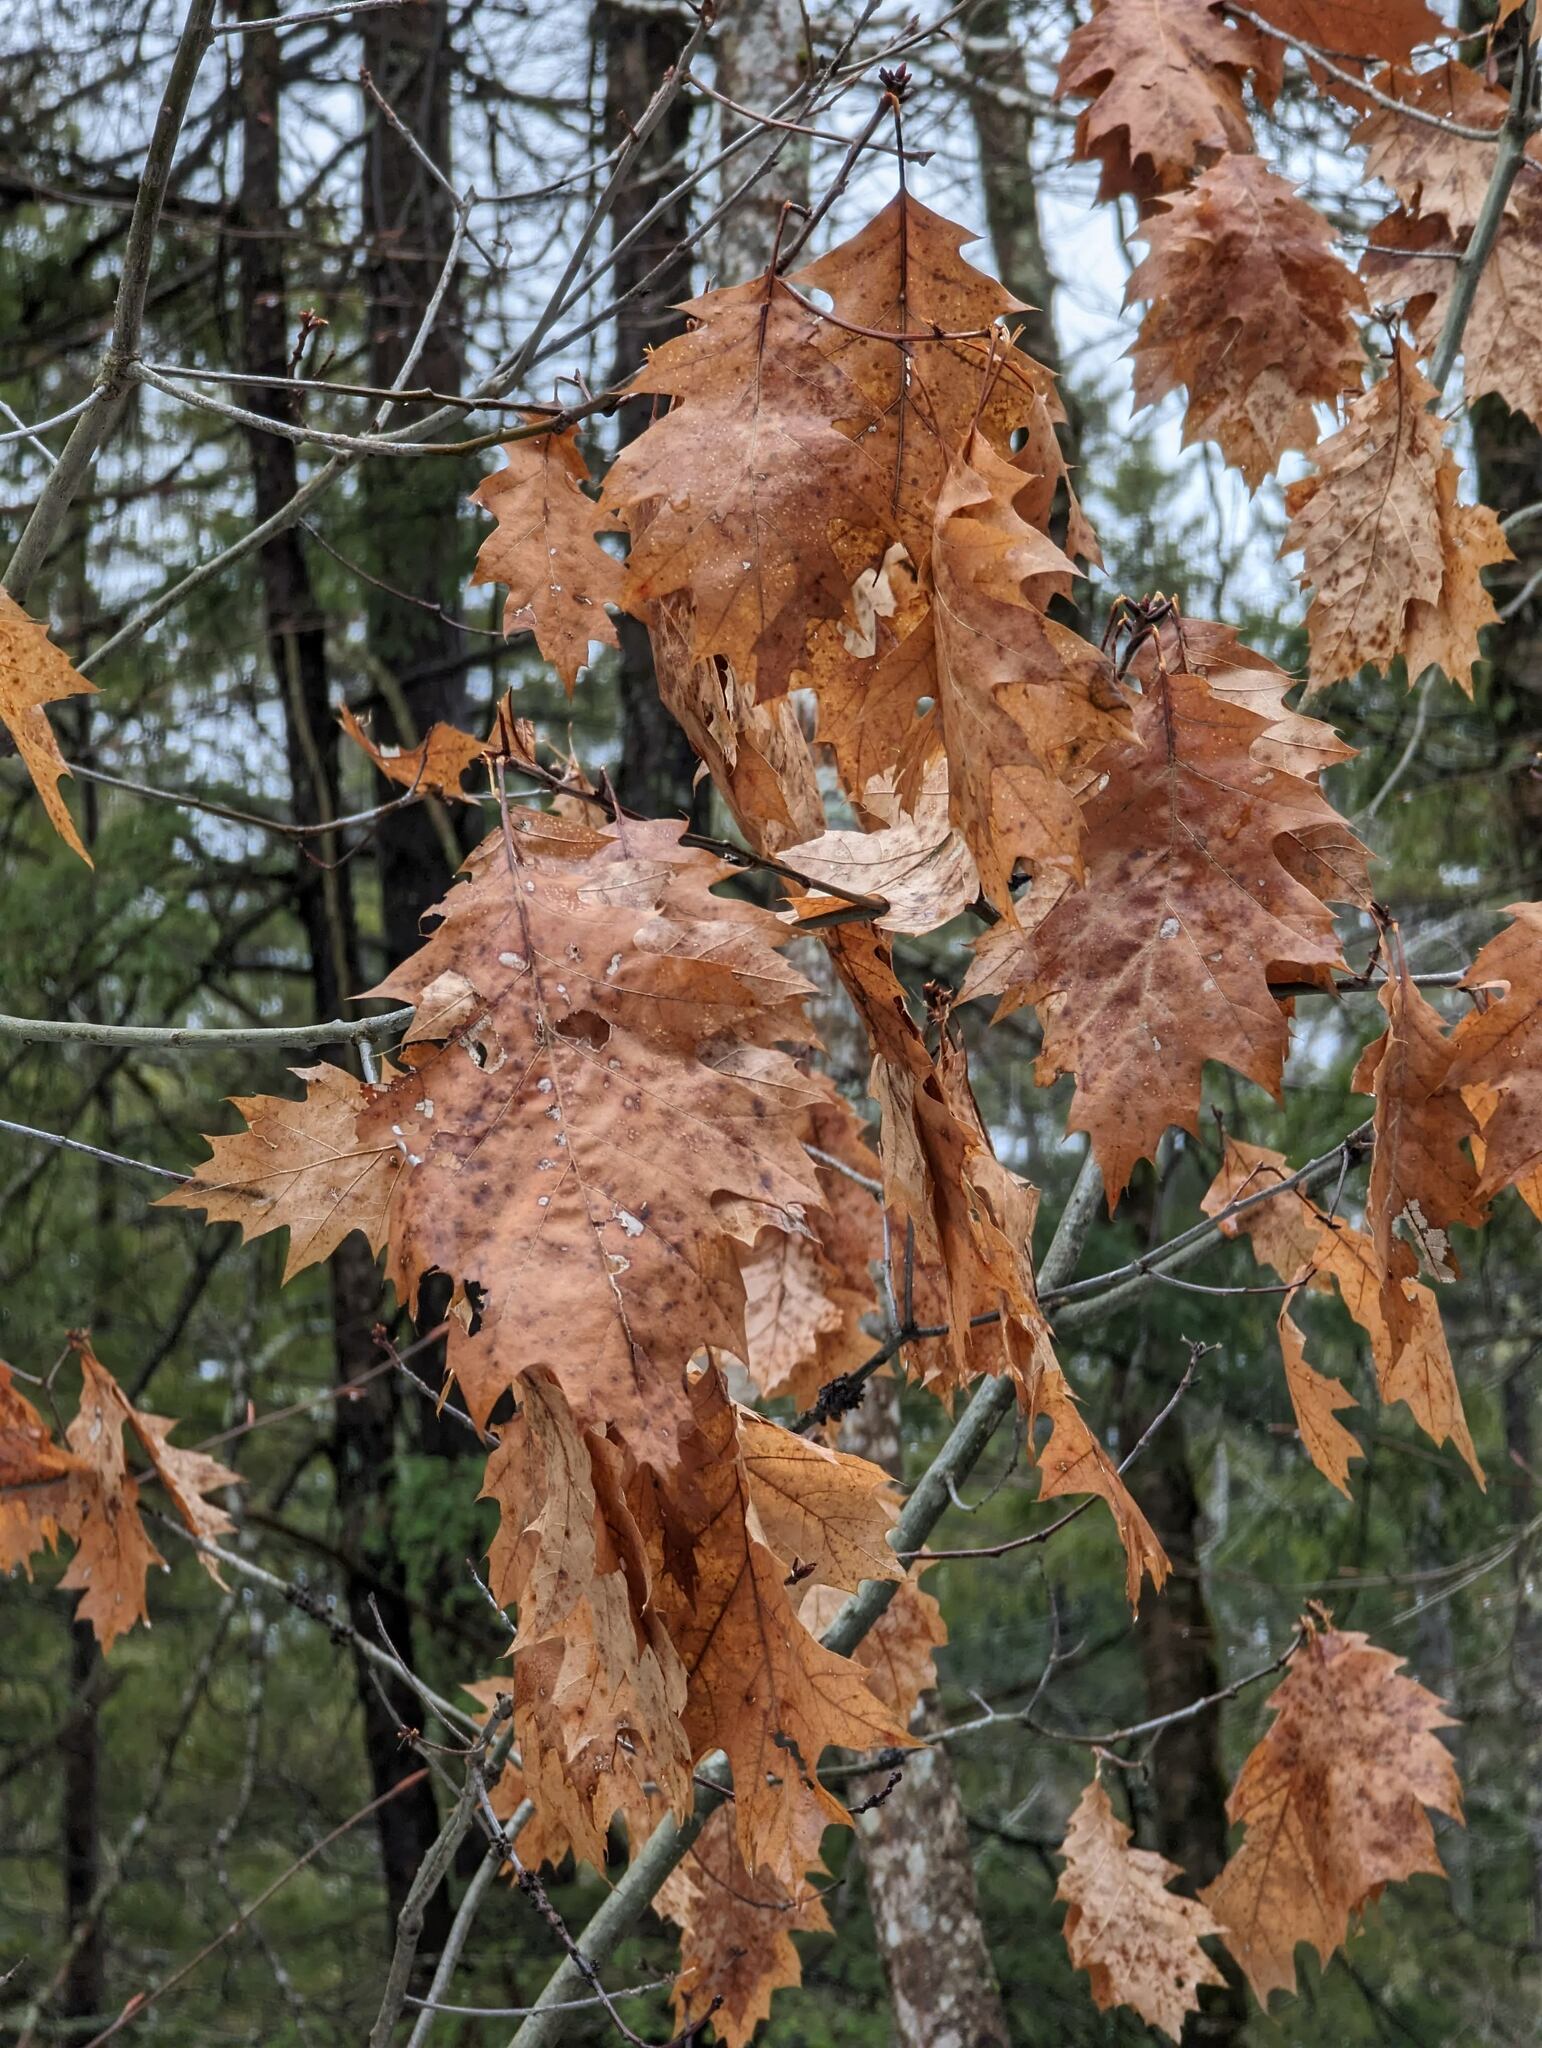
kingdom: Plantae
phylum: Tracheophyta
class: Magnoliopsida
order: Fagales
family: Fagaceae
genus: Quercus
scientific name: Quercus rubra
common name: Red oak
